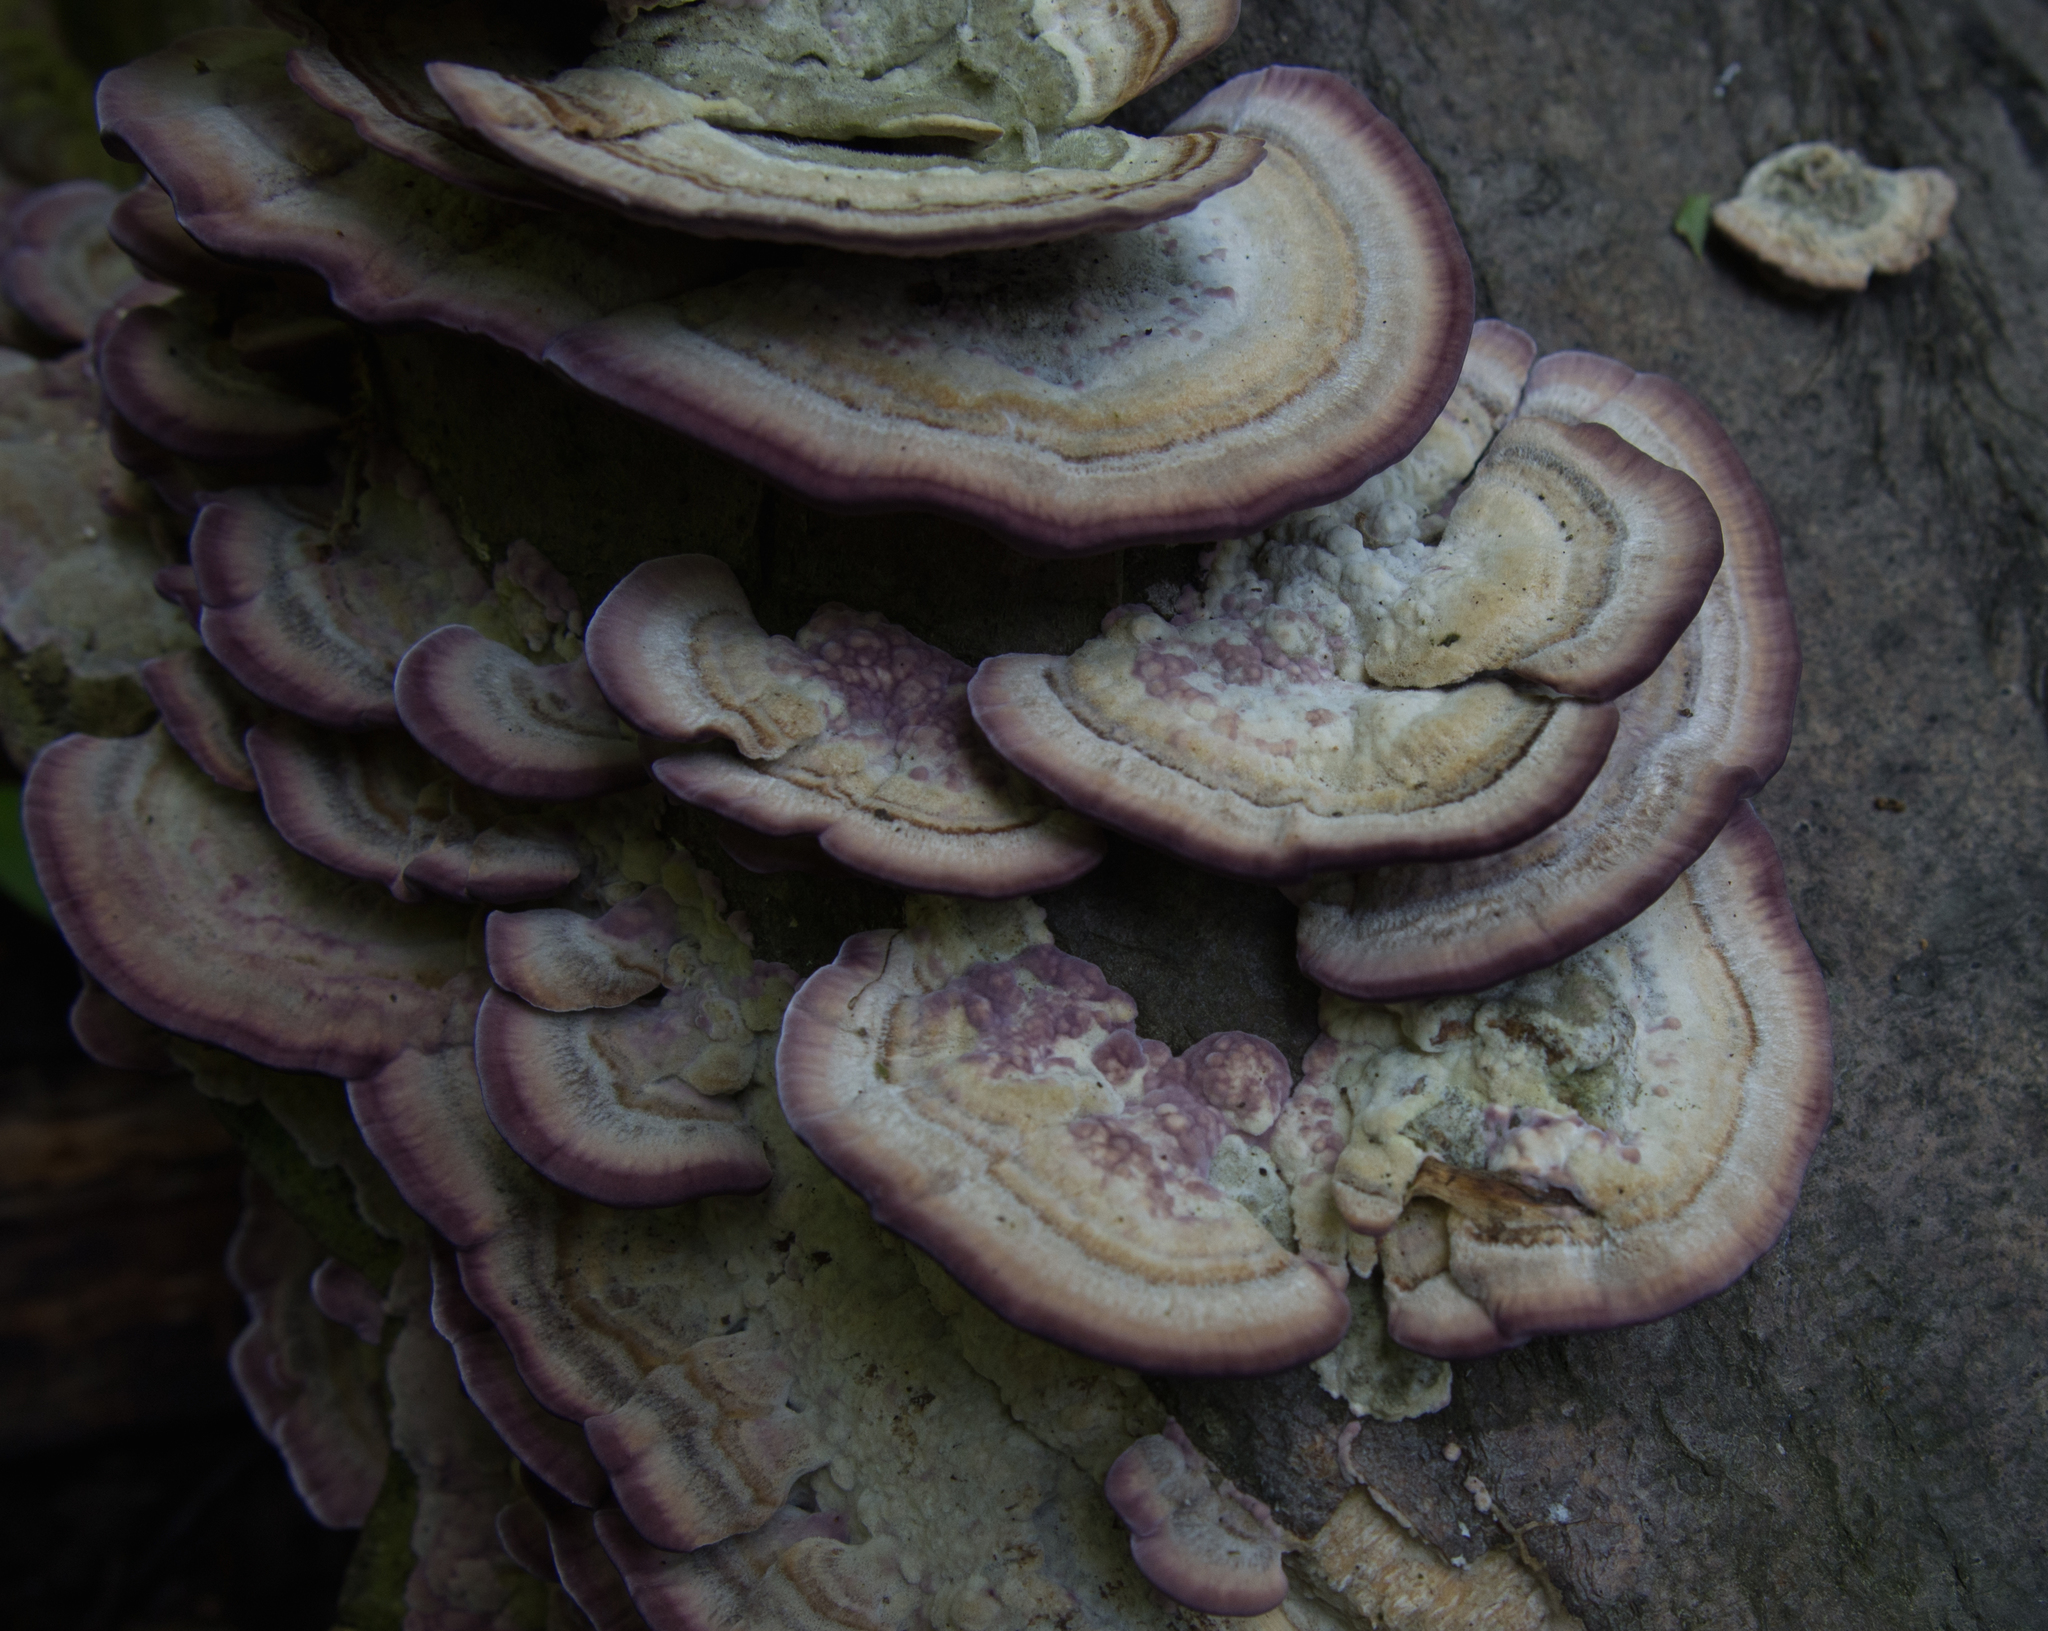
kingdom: Fungi
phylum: Basidiomycota
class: Agaricomycetes
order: Hymenochaetales
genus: Trichaptum
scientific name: Trichaptum biforme
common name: Violet-toothed polypore
